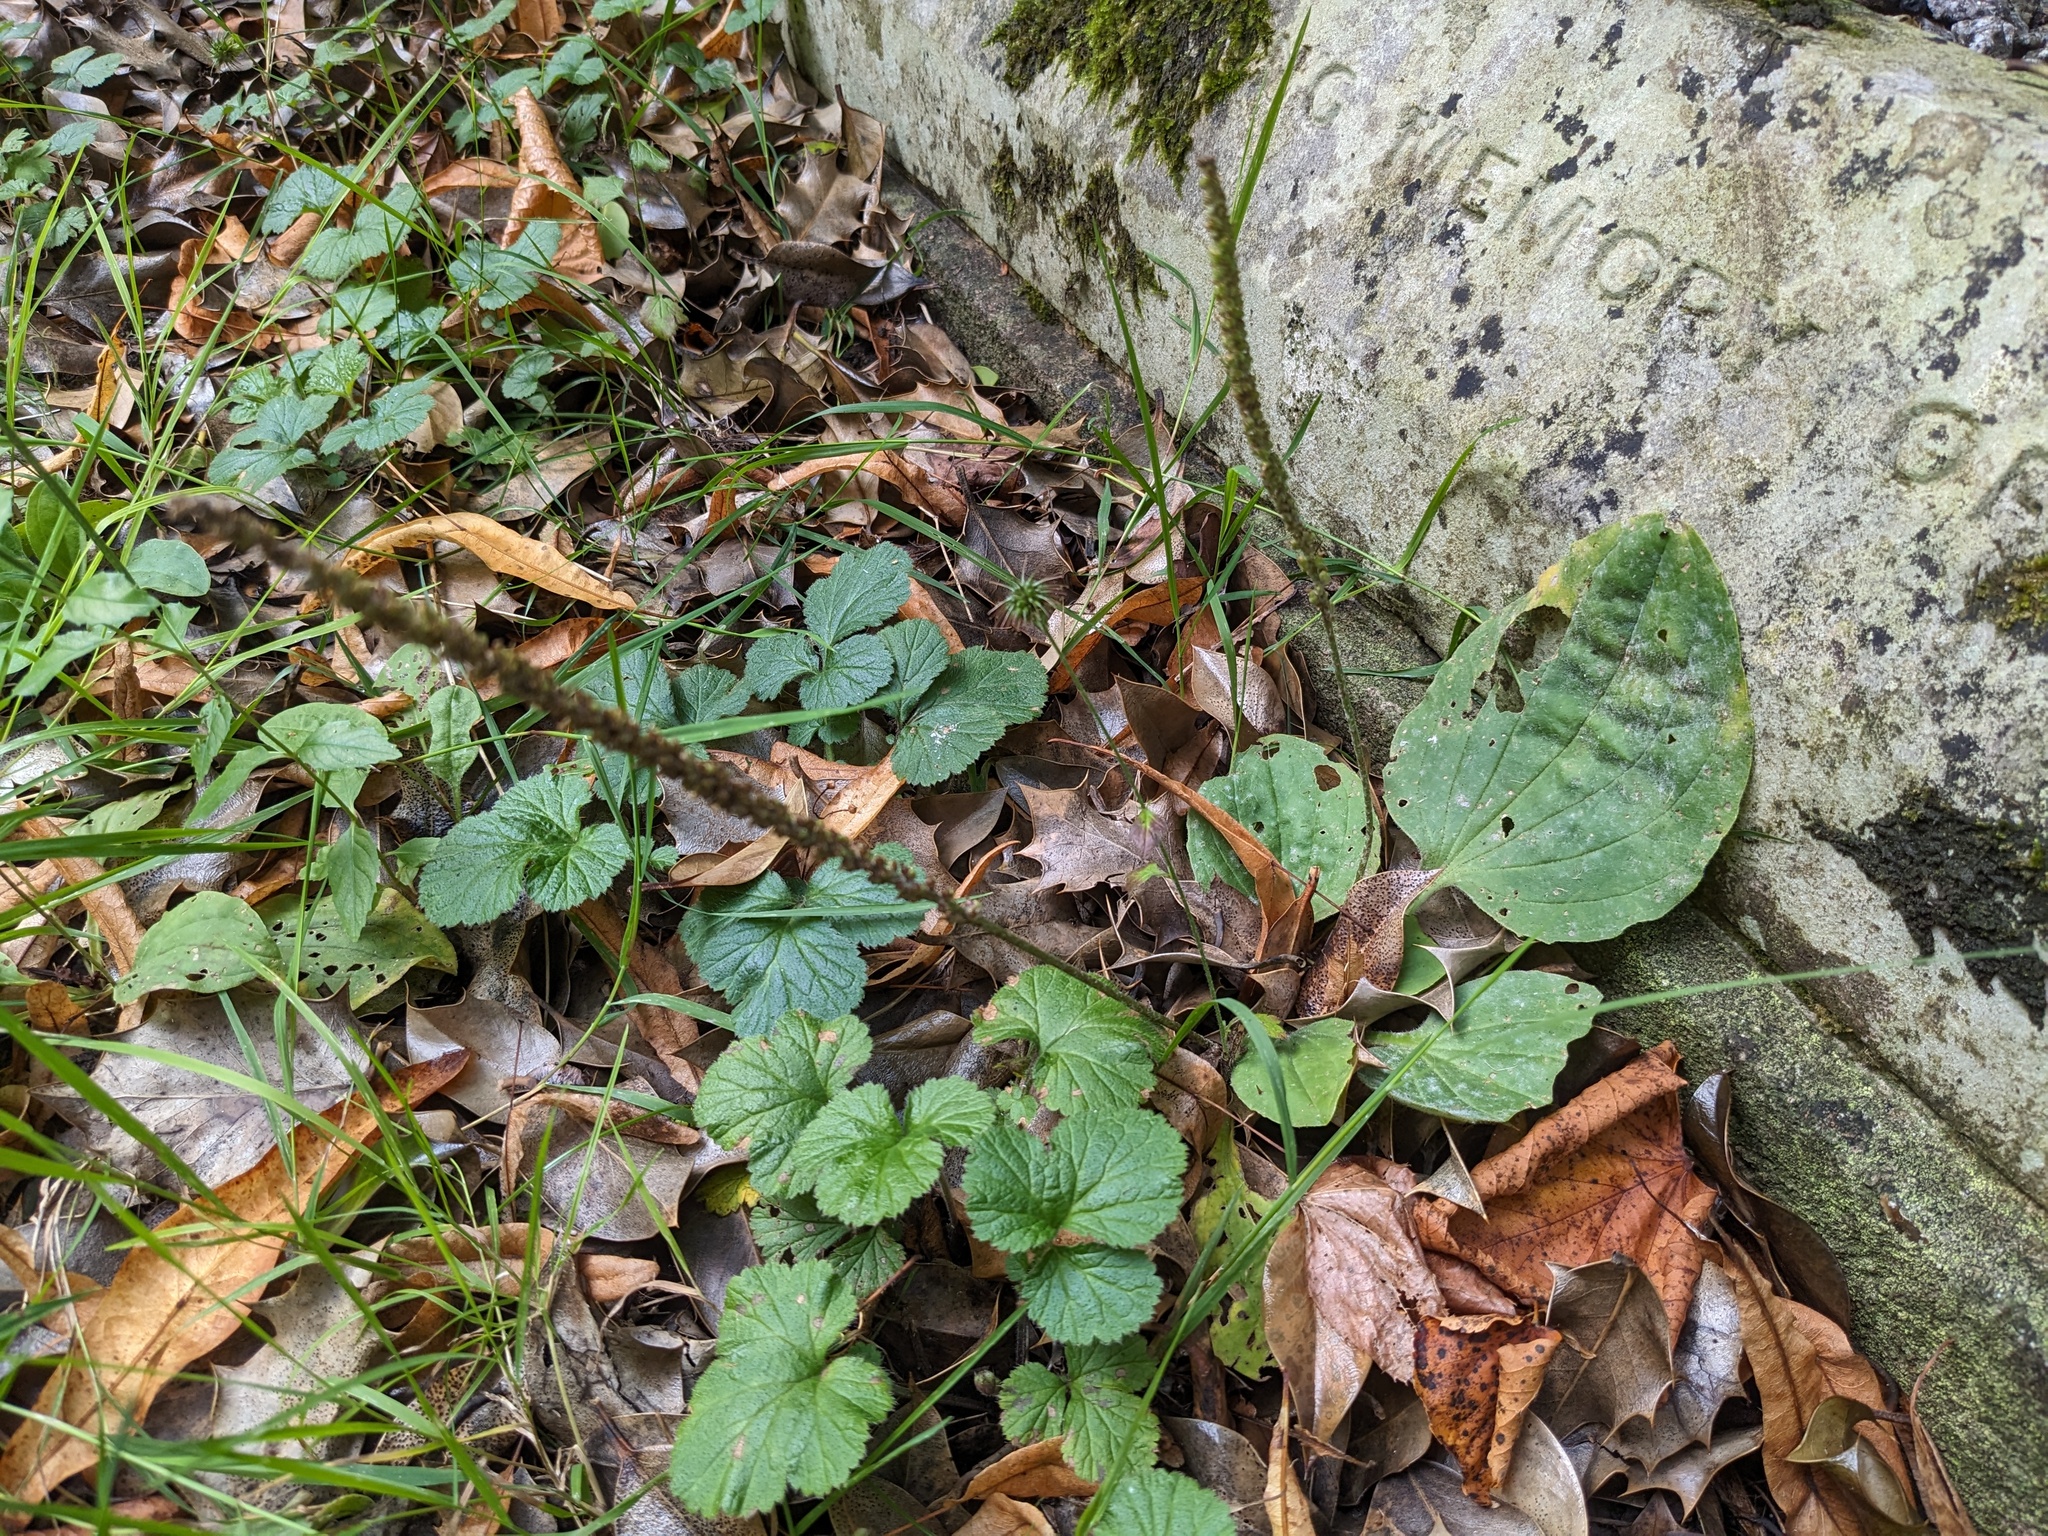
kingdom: Plantae
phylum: Tracheophyta
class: Magnoliopsida
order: Lamiales
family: Plantaginaceae
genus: Plantago
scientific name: Plantago major
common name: Common plantain
